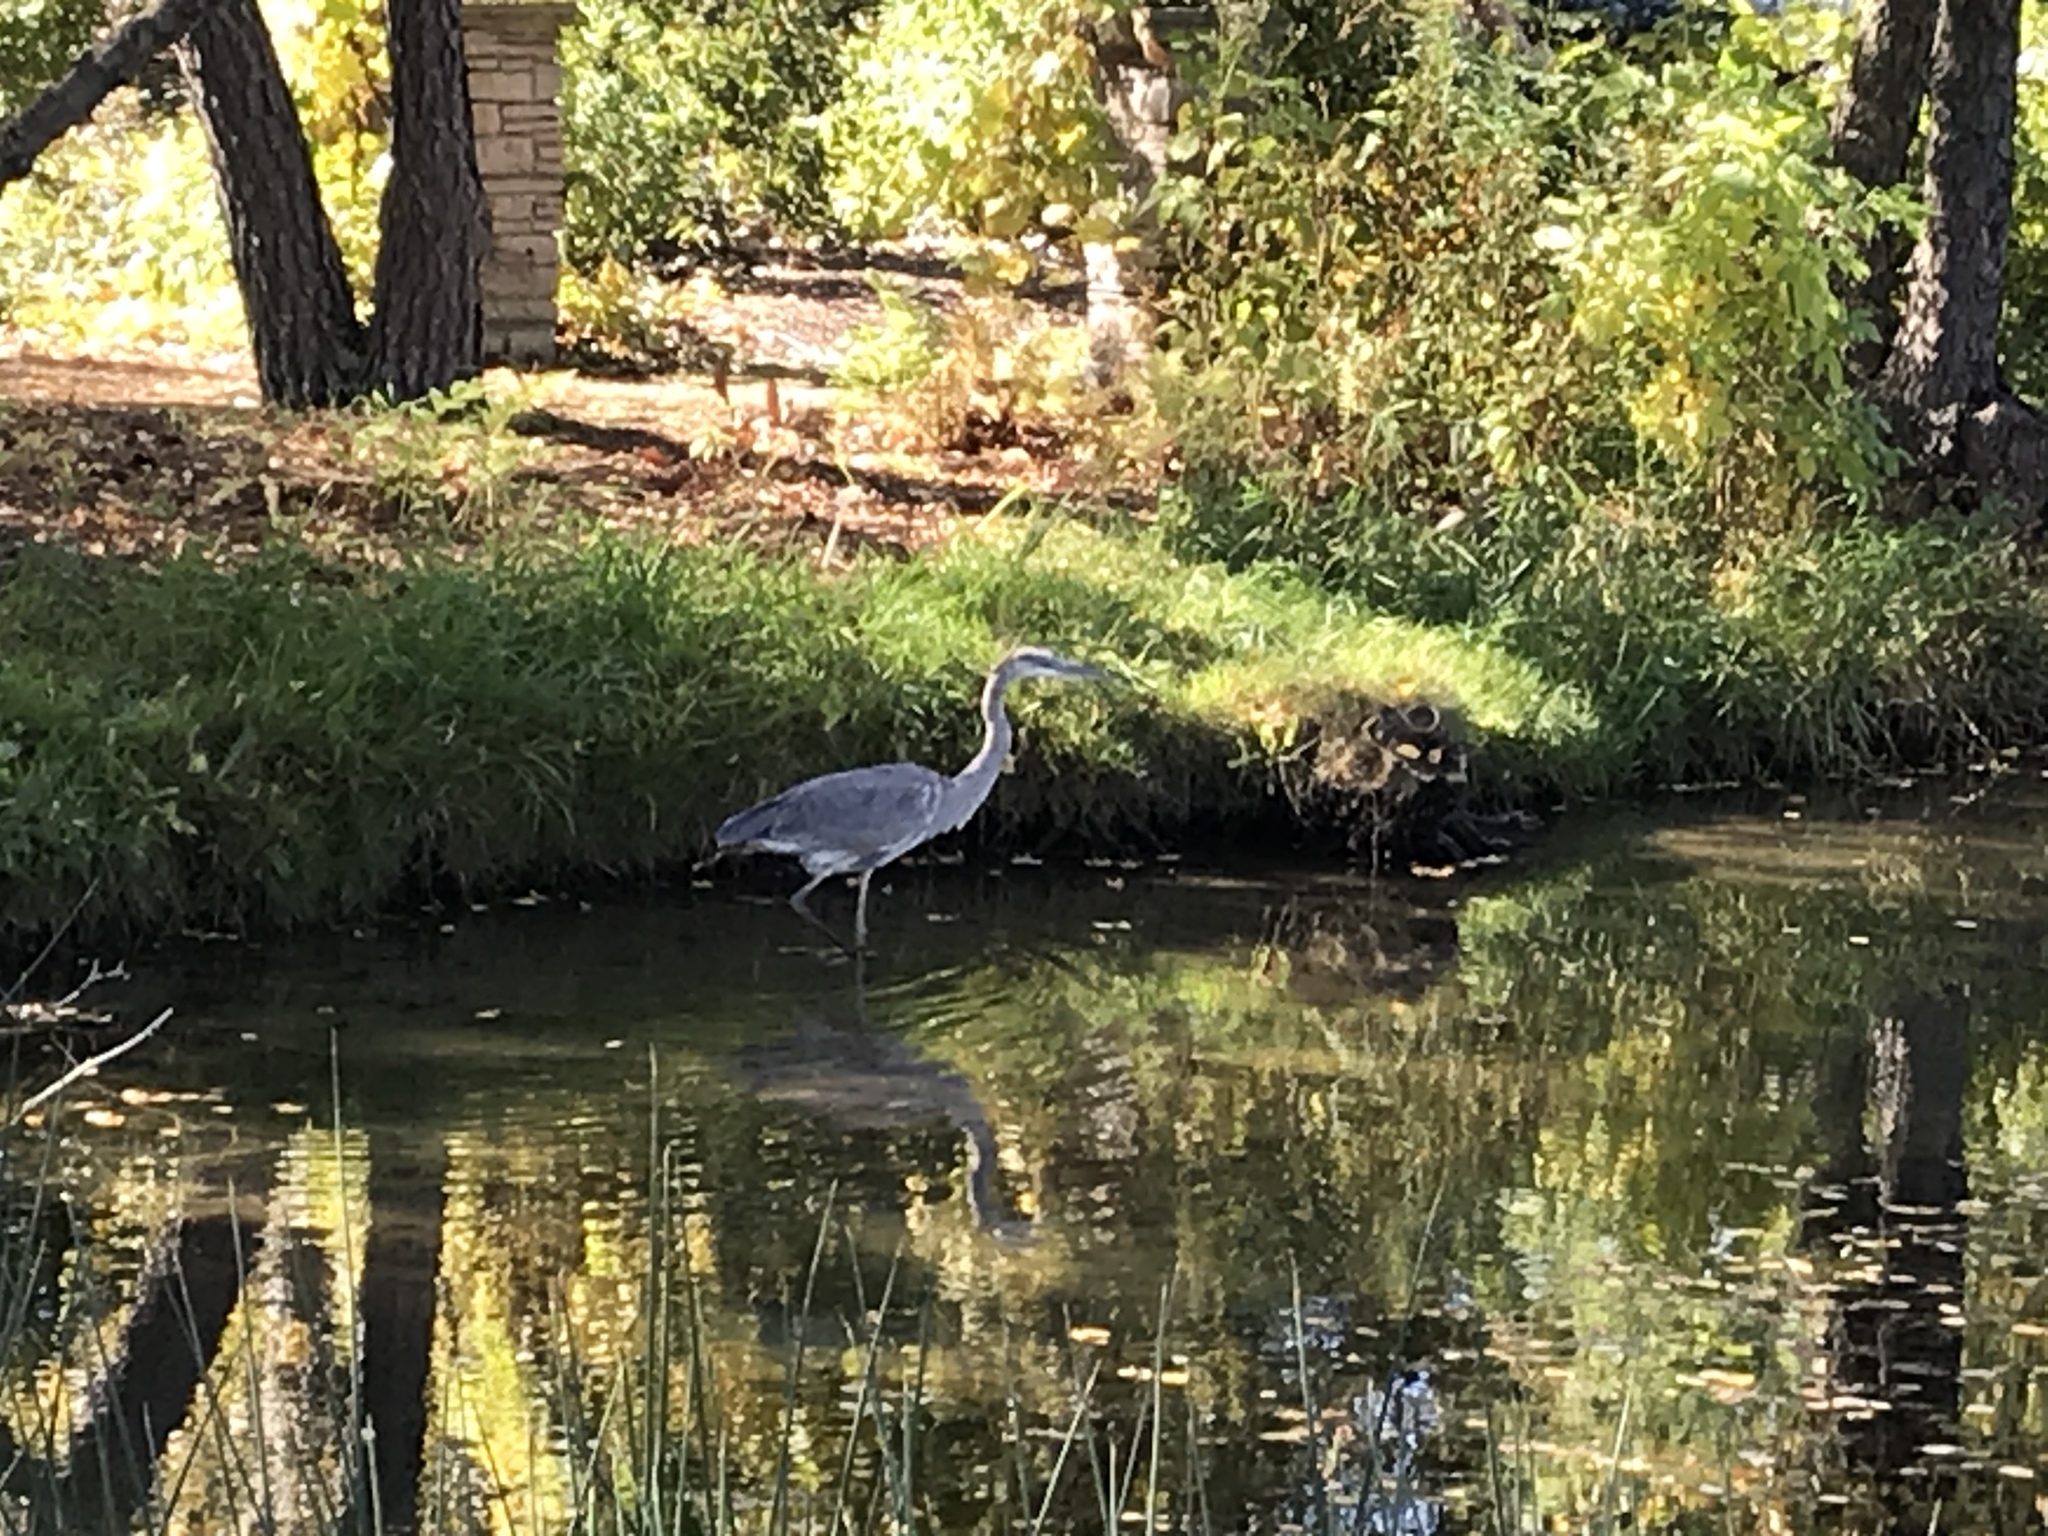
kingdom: Animalia
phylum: Chordata
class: Aves
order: Pelecaniformes
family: Ardeidae
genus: Ardea
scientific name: Ardea herodias
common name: Great blue heron
